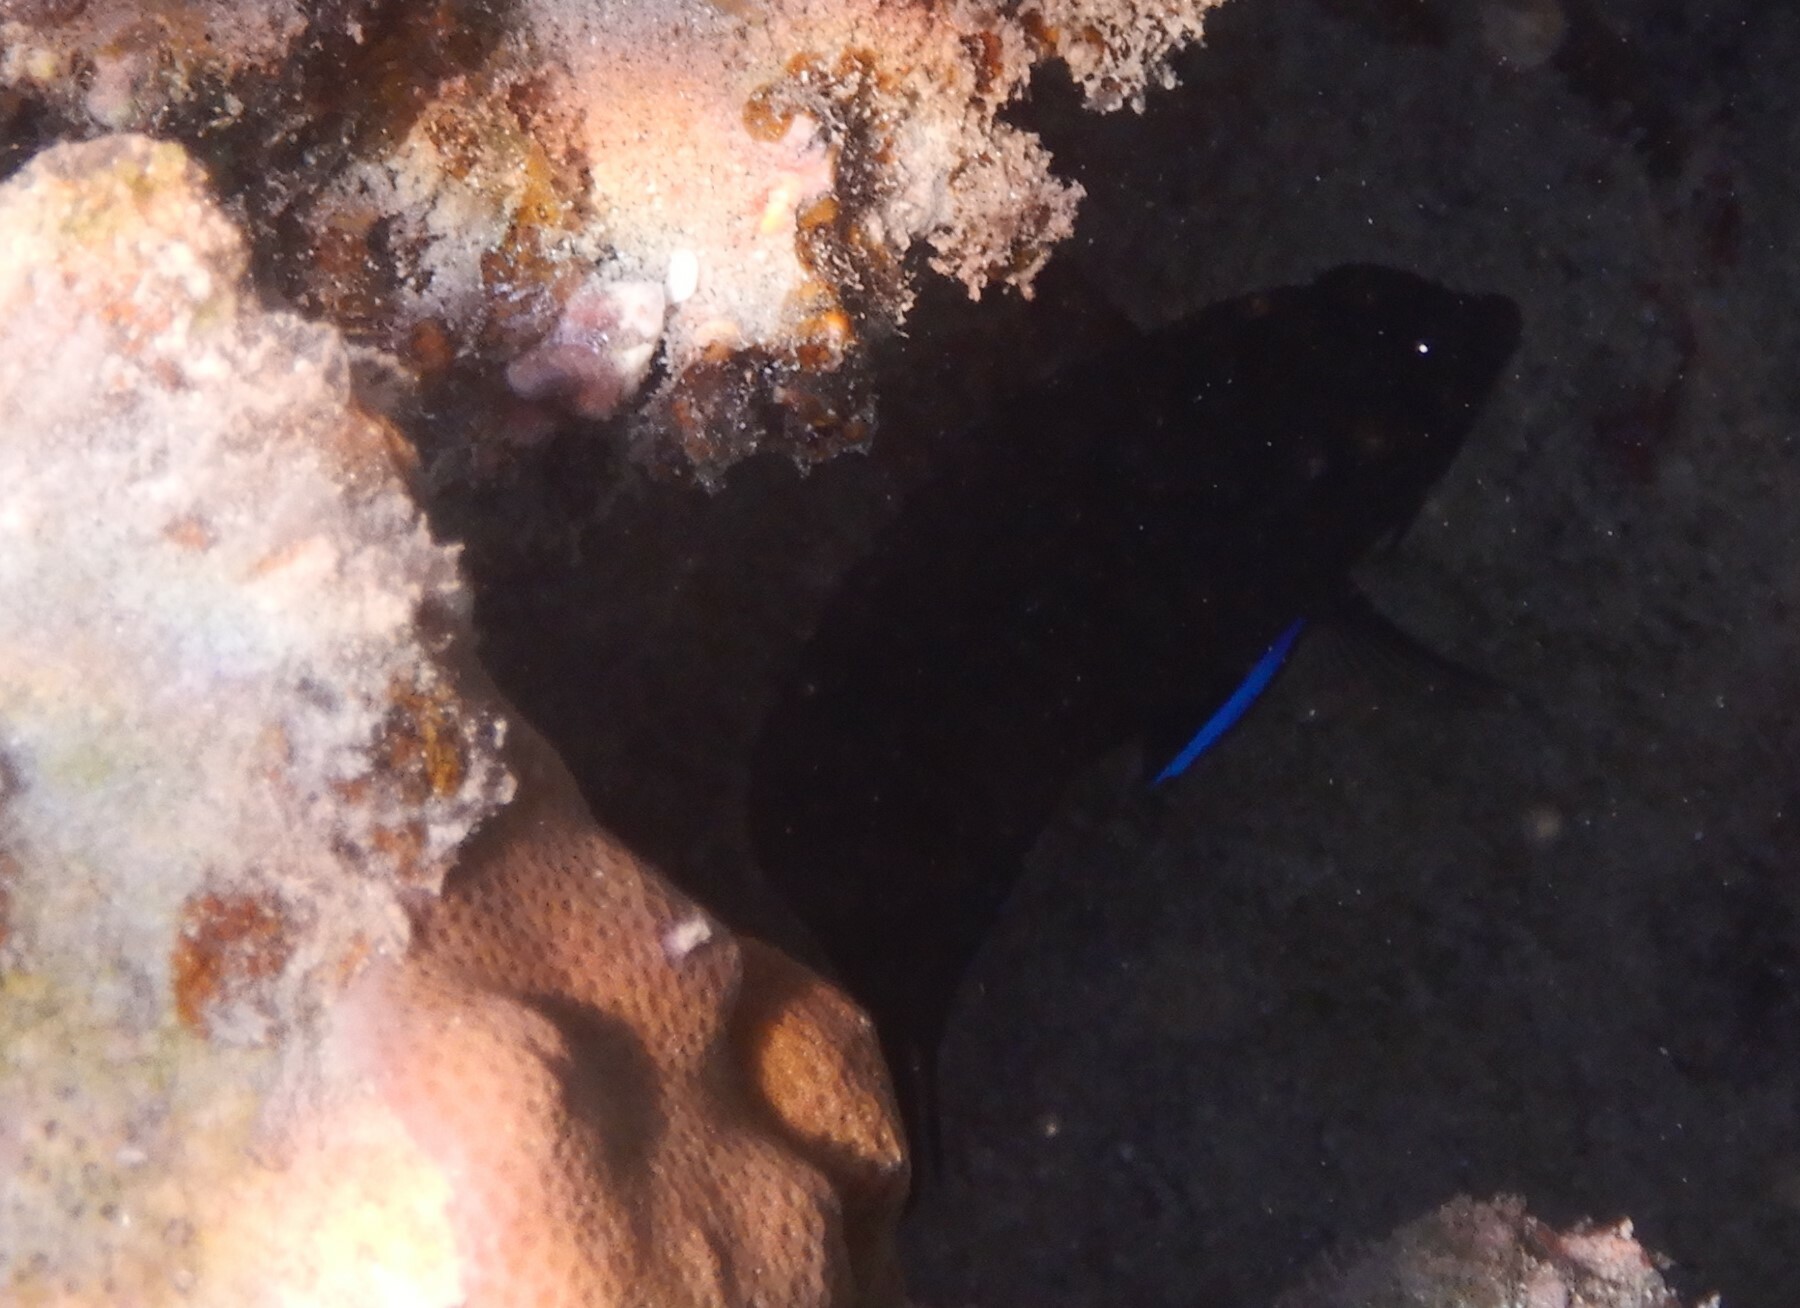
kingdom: Animalia
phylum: Chordata
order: Perciformes
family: Pomacanthidae
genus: Centropyge
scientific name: Centropyge multispinis
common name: Many-spined angelfish
